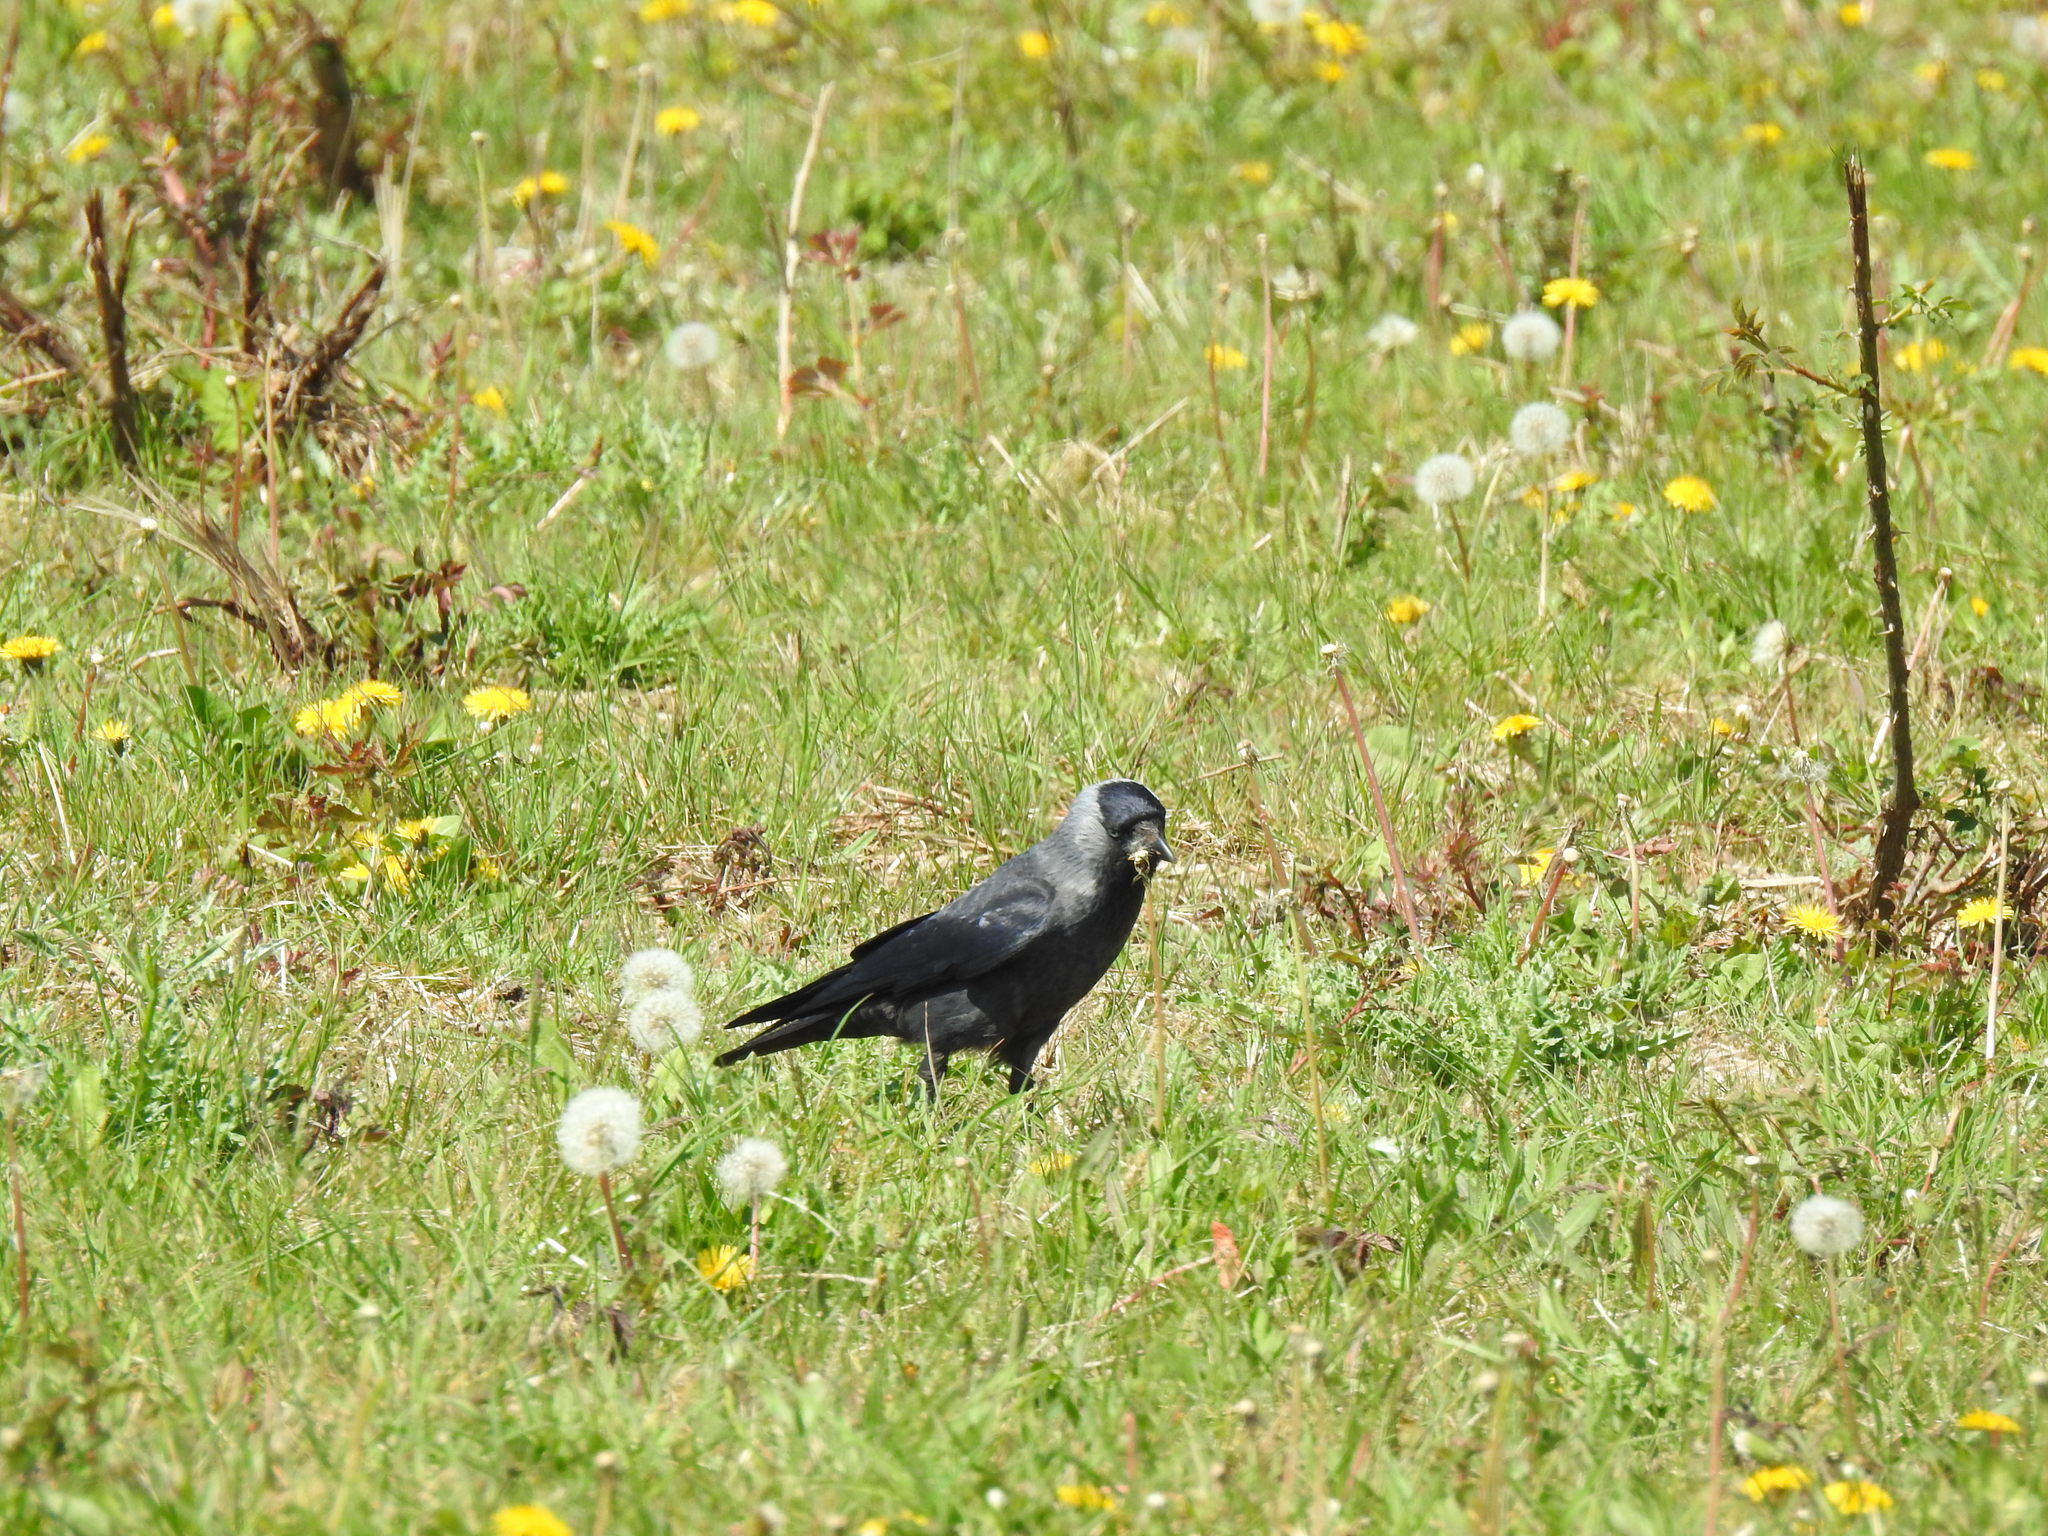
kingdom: Animalia
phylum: Chordata
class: Aves
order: Passeriformes
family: Corvidae
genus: Coloeus
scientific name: Coloeus monedula
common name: Western jackdaw
